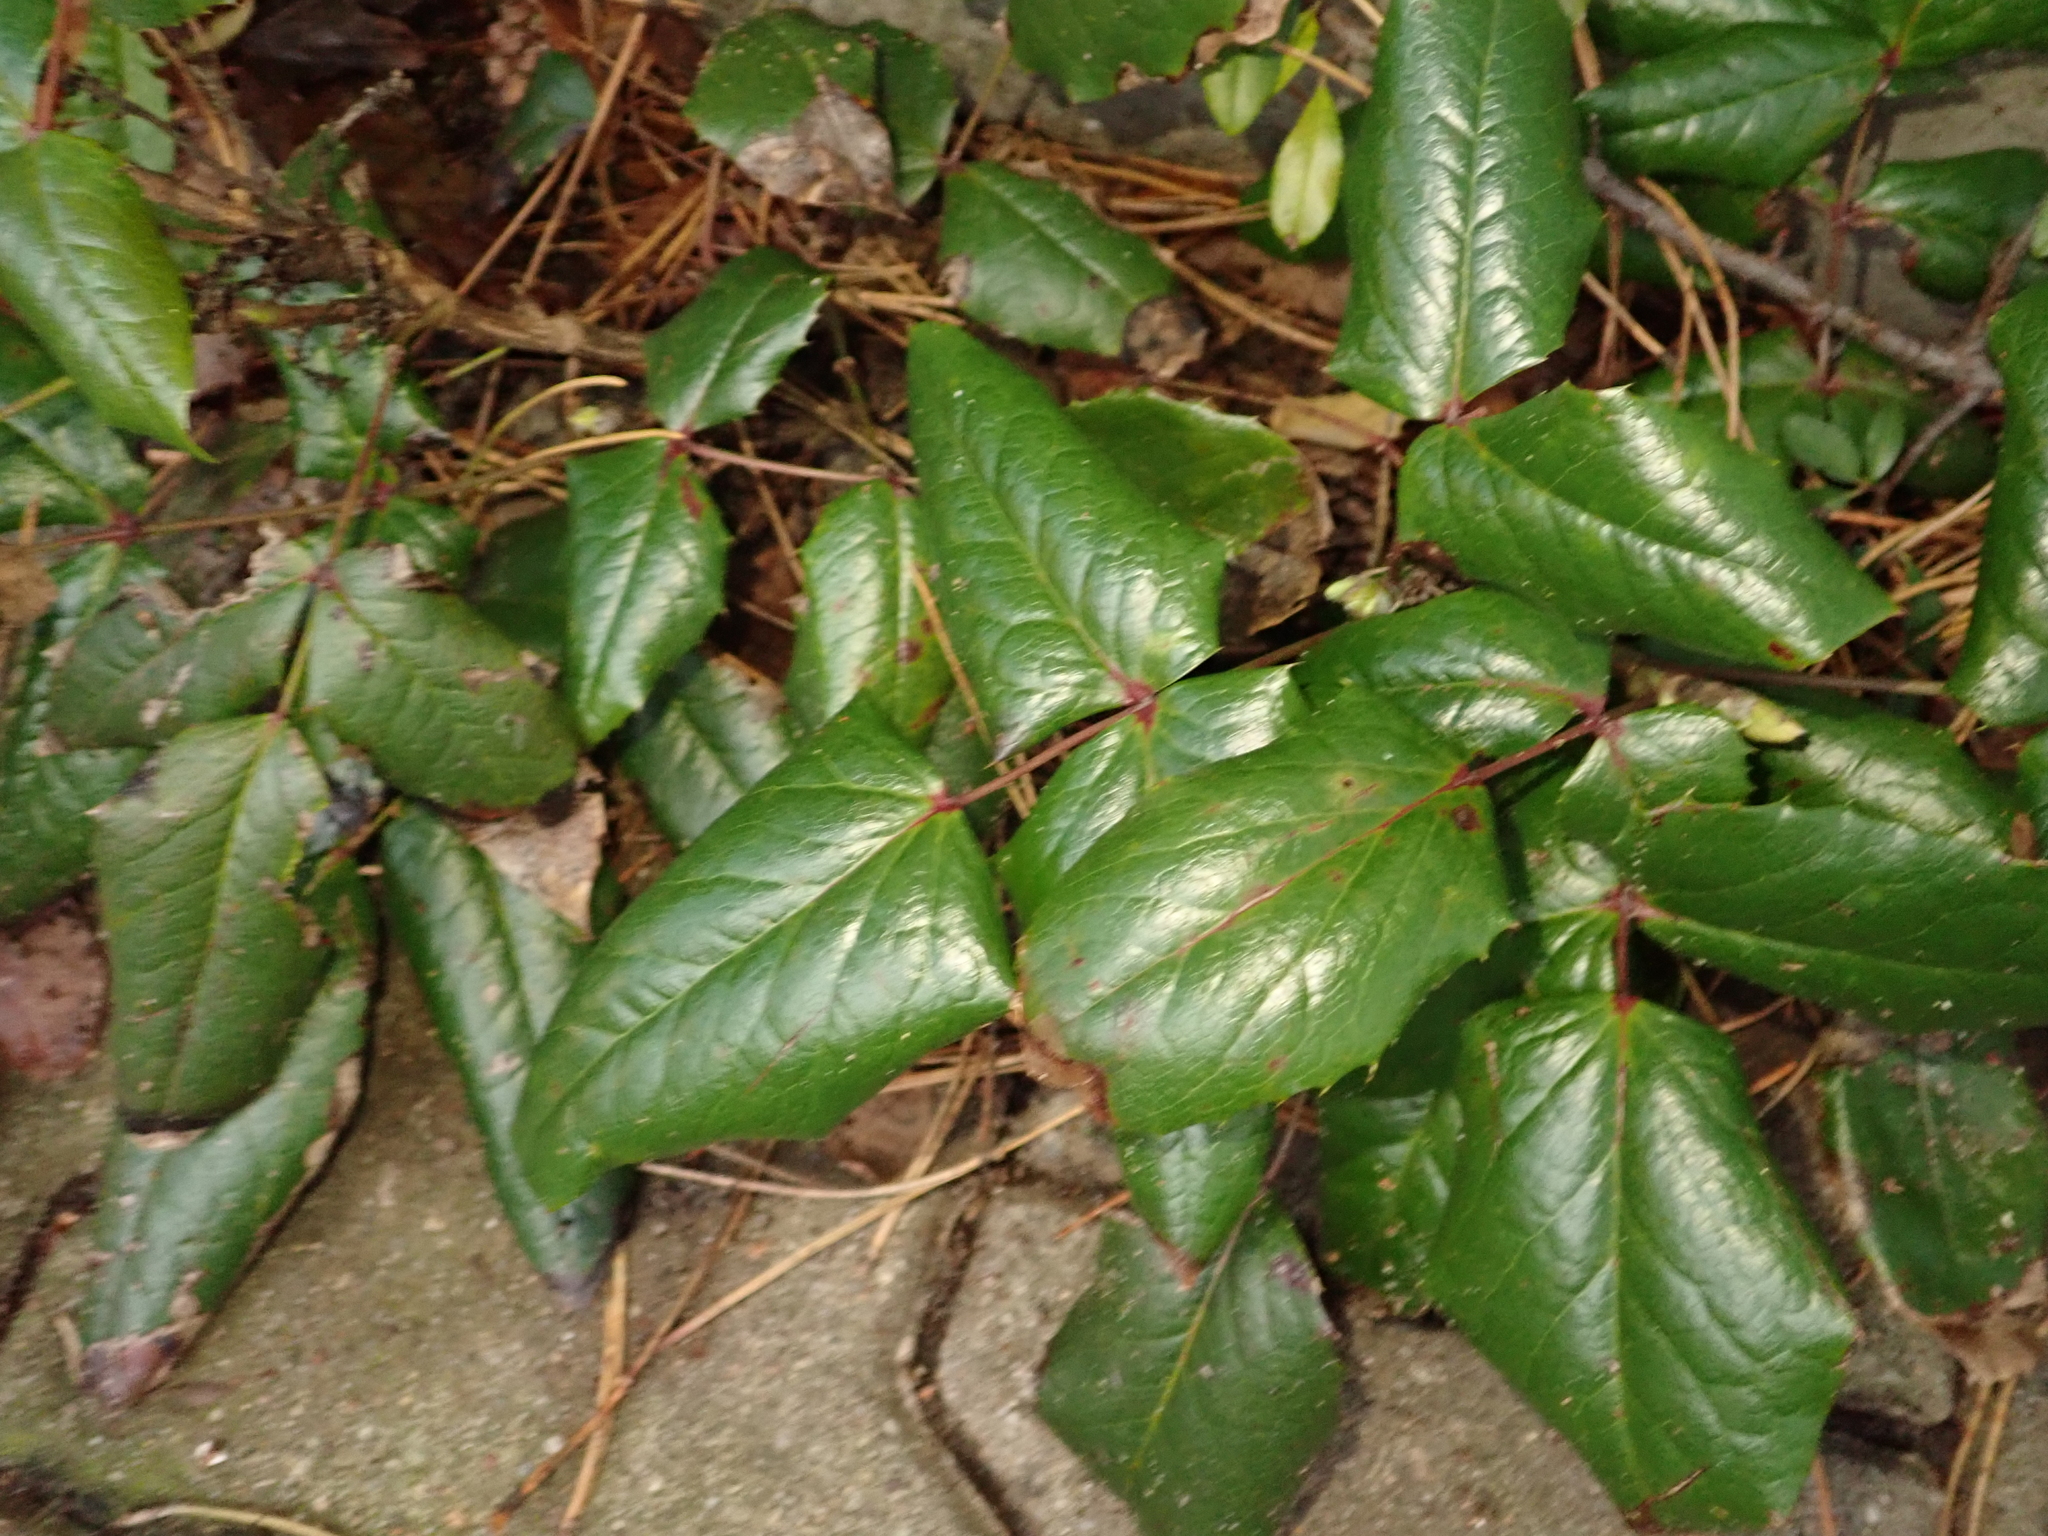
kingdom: Plantae
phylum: Tracheophyta
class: Magnoliopsida
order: Ranunculales
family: Berberidaceae
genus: Mahonia
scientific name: Mahonia aquifolium
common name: Oregon-grape
